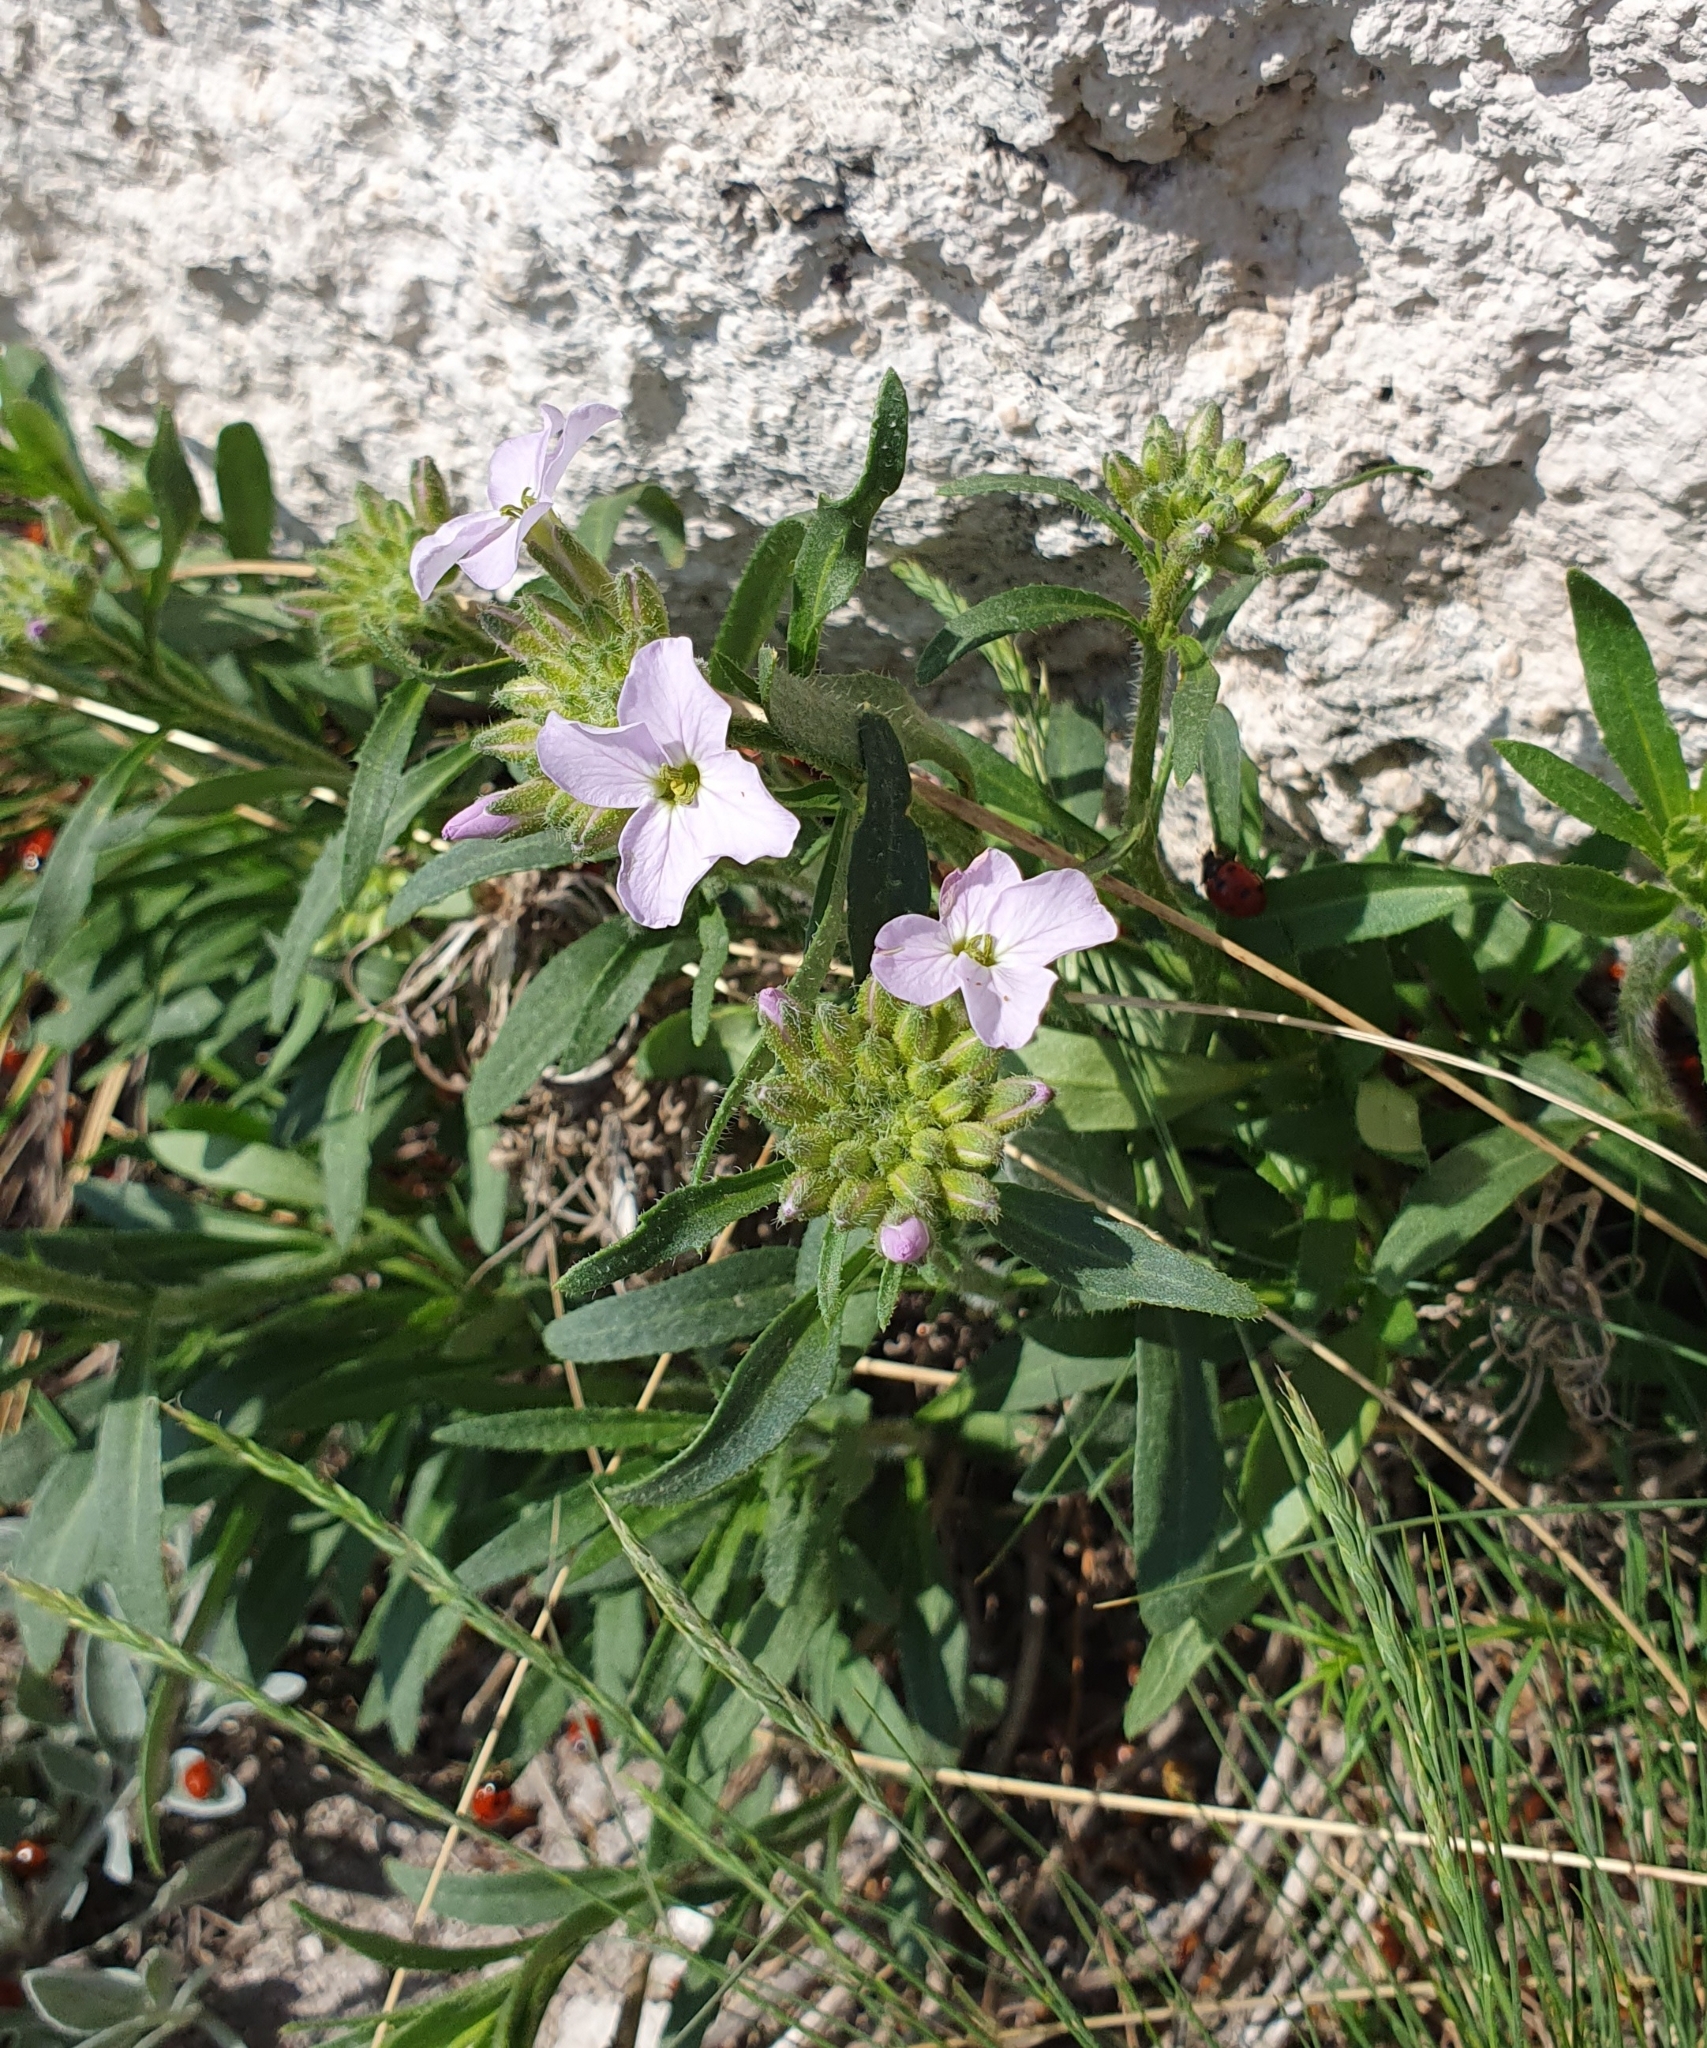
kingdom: Plantae
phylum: Tracheophyta
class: Magnoliopsida
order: Brassicales
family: Brassicaceae
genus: Clausia
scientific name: Clausia aprica
